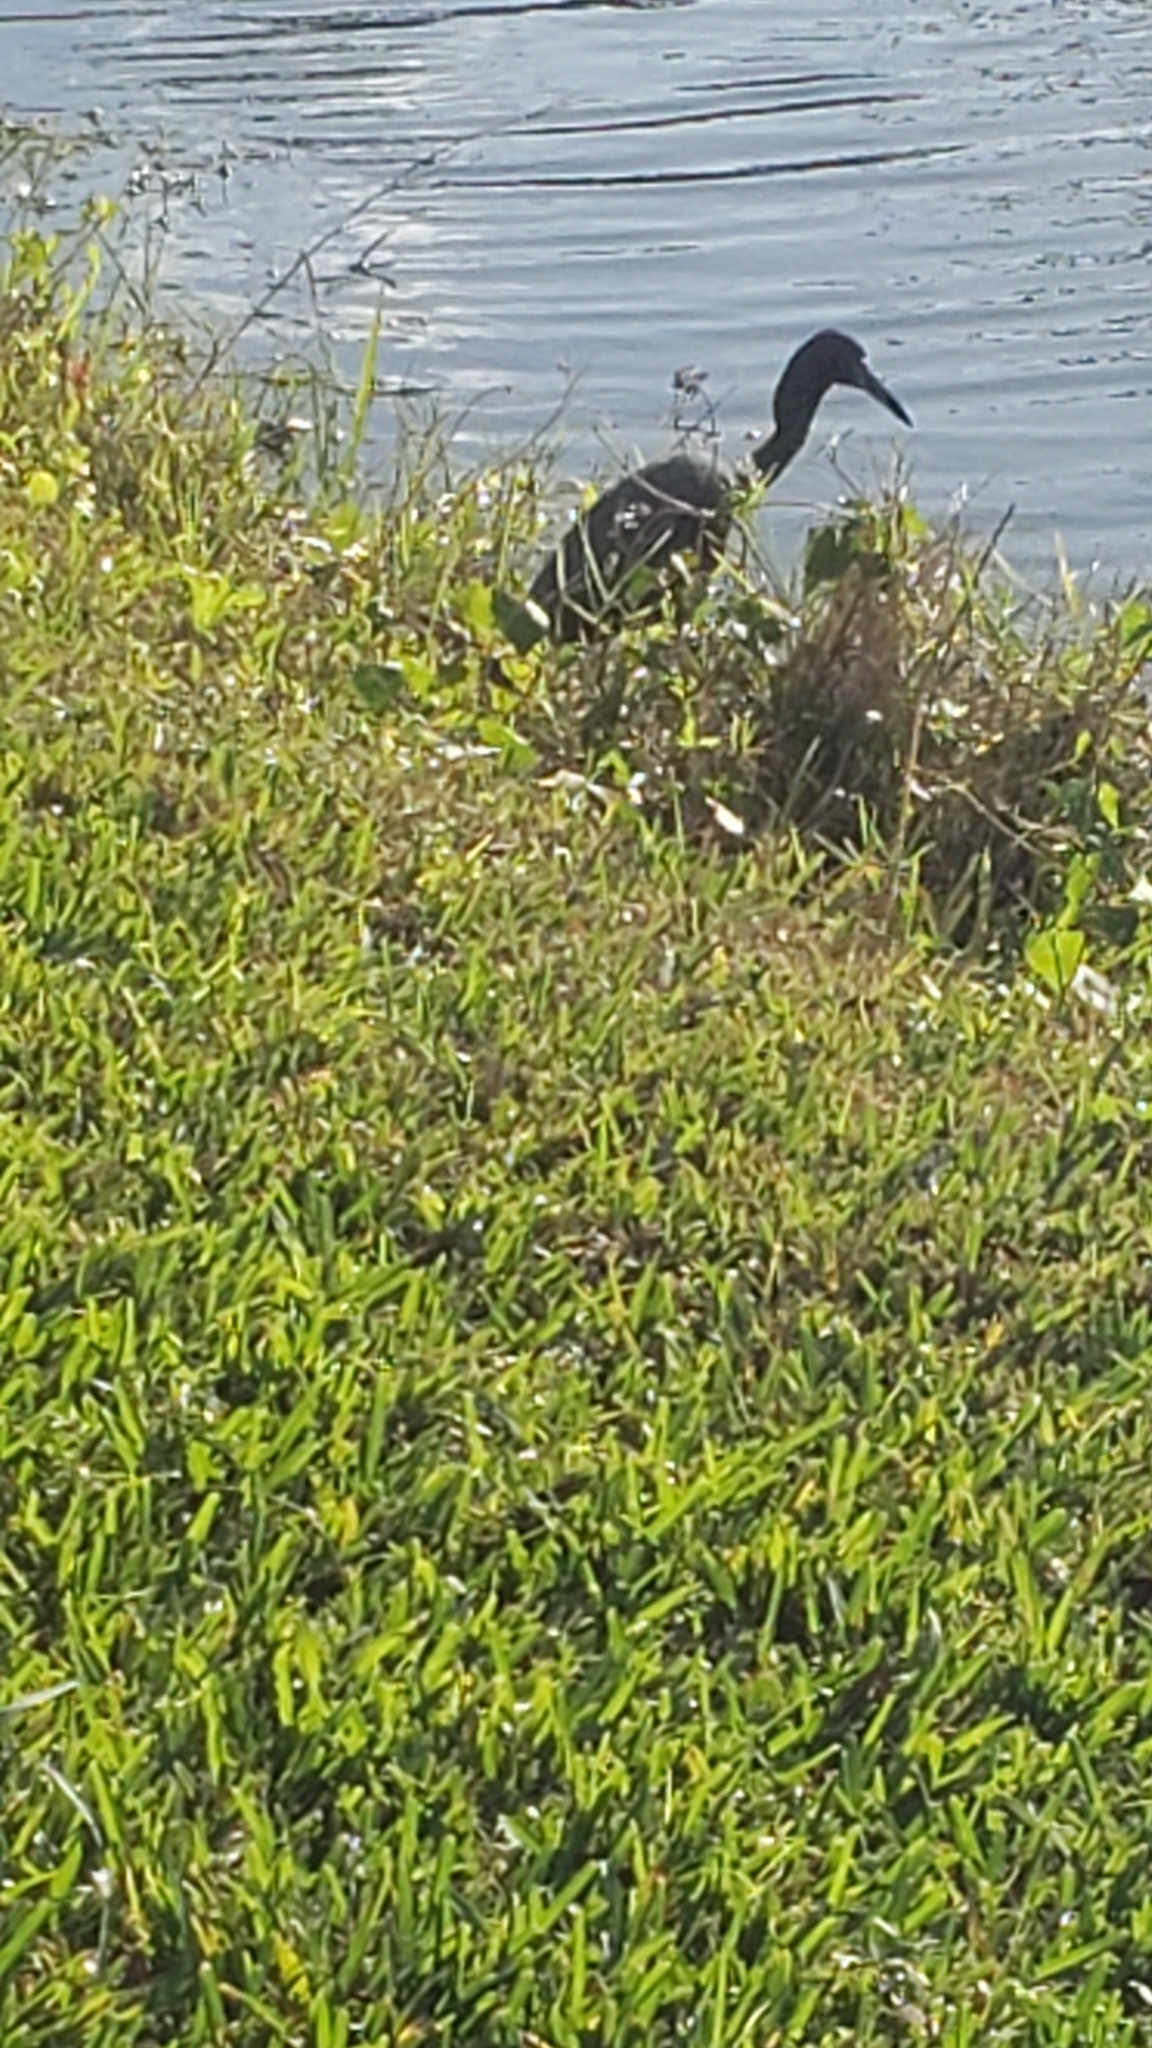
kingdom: Animalia
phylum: Chordata
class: Aves
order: Pelecaniformes
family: Ardeidae
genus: Egretta
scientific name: Egretta caerulea
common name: Little blue heron
